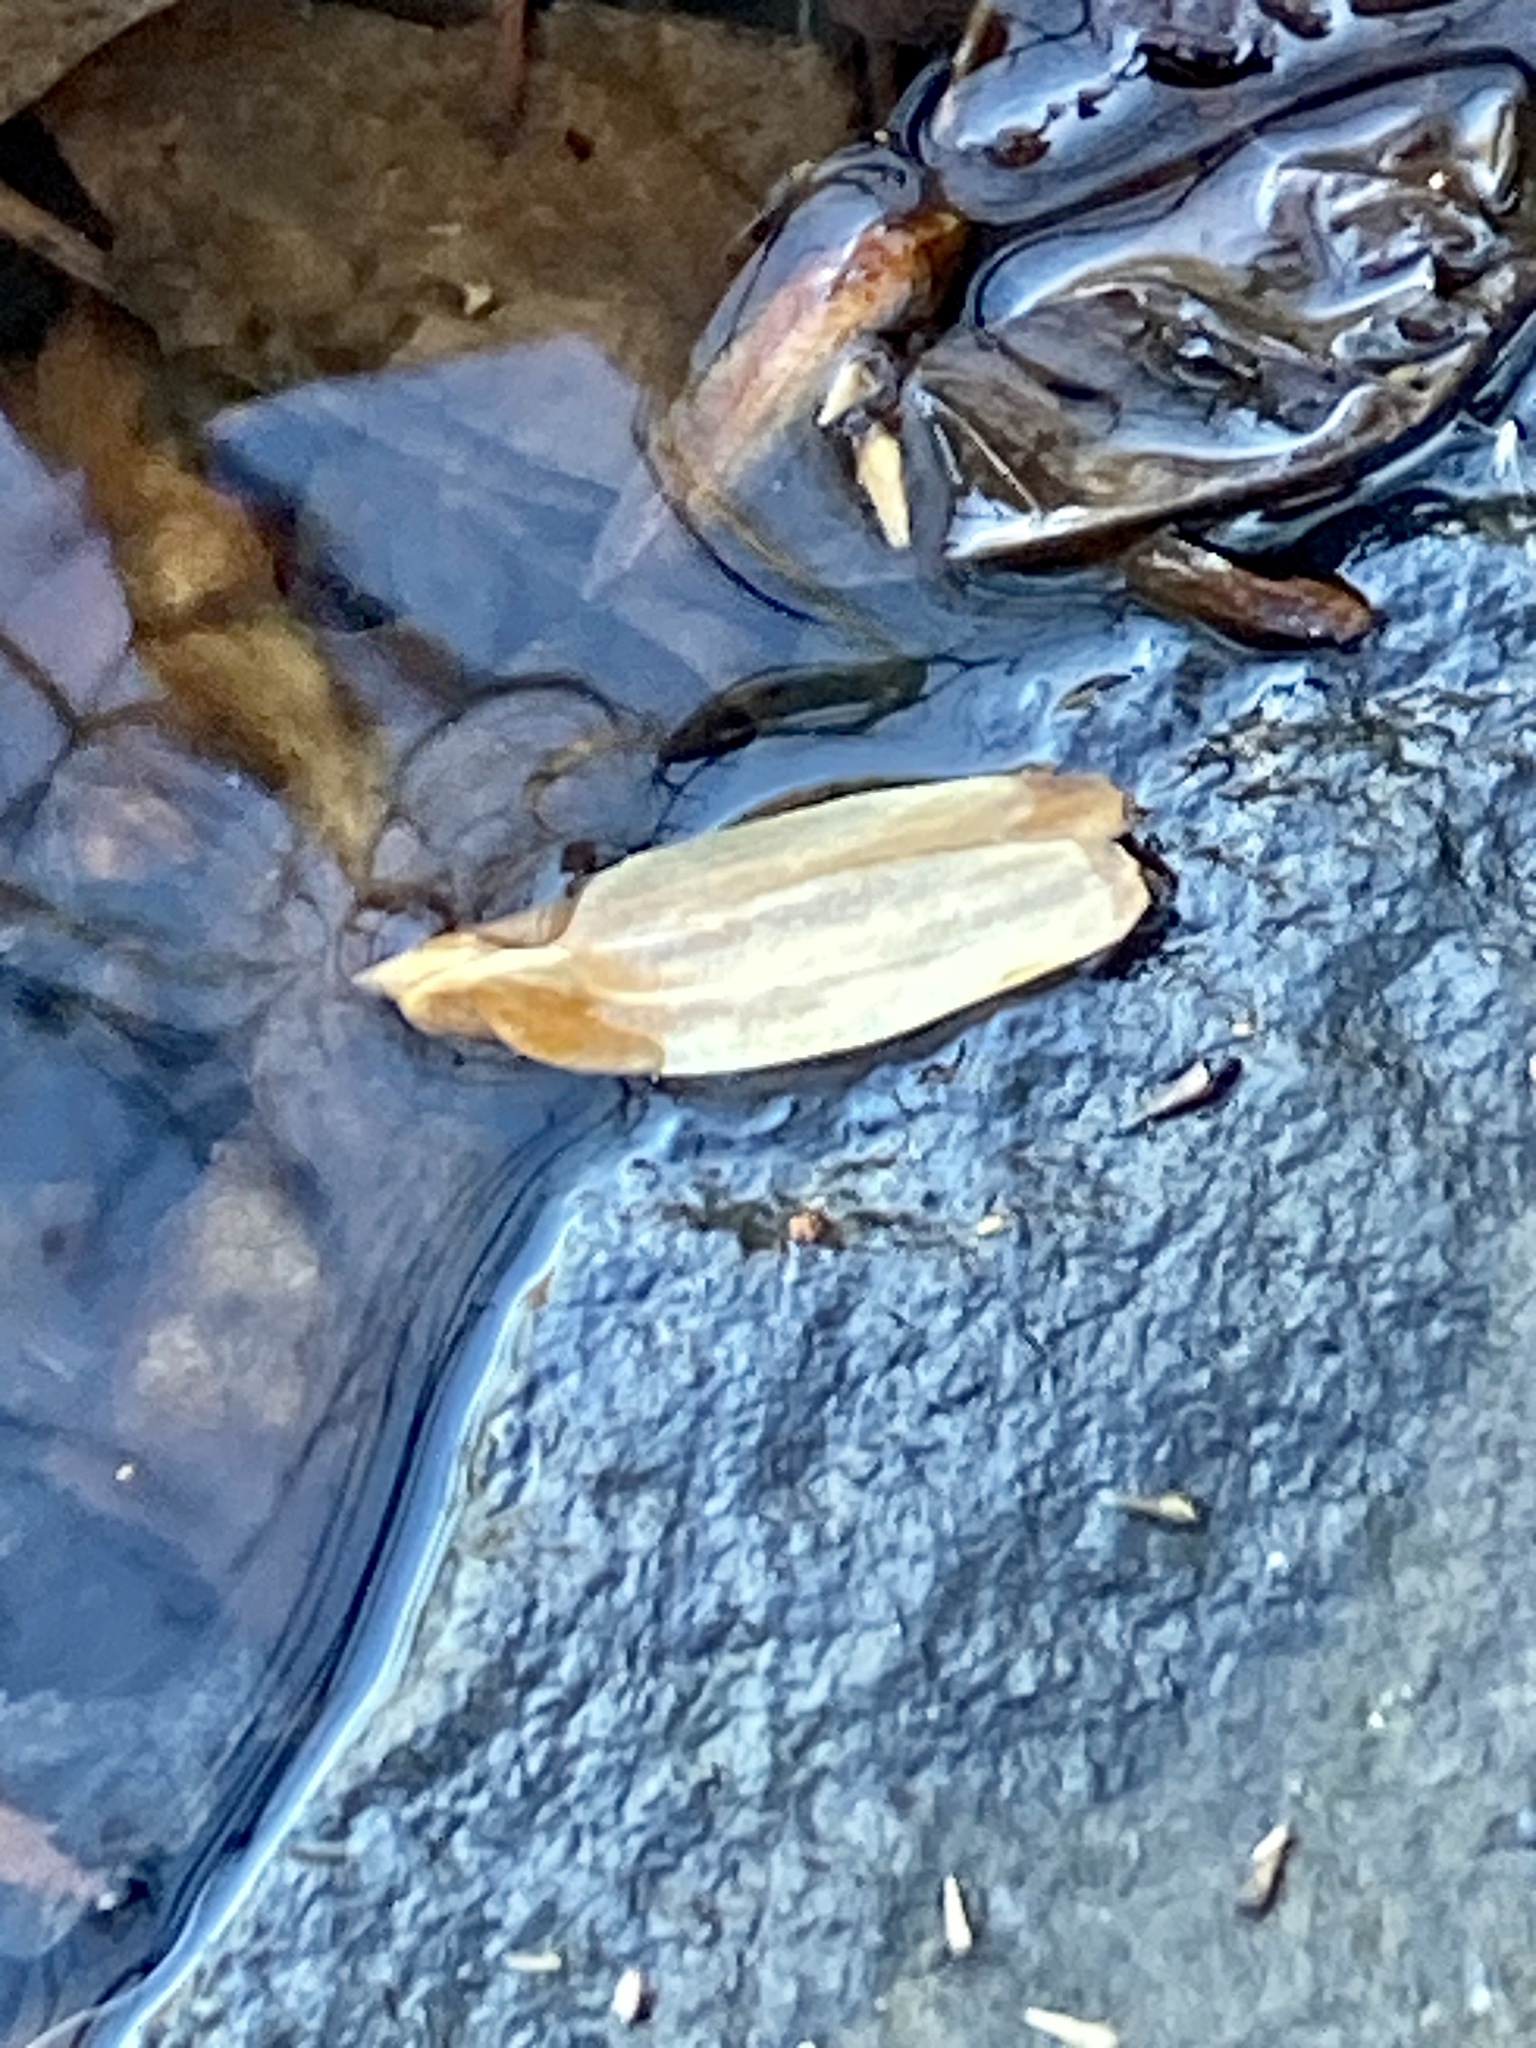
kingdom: Plantae
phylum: Tracheophyta
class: Magnoliopsida
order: Magnoliales
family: Magnoliaceae
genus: Liriodendron
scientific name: Liriodendron tulipifera
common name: Tulip tree
